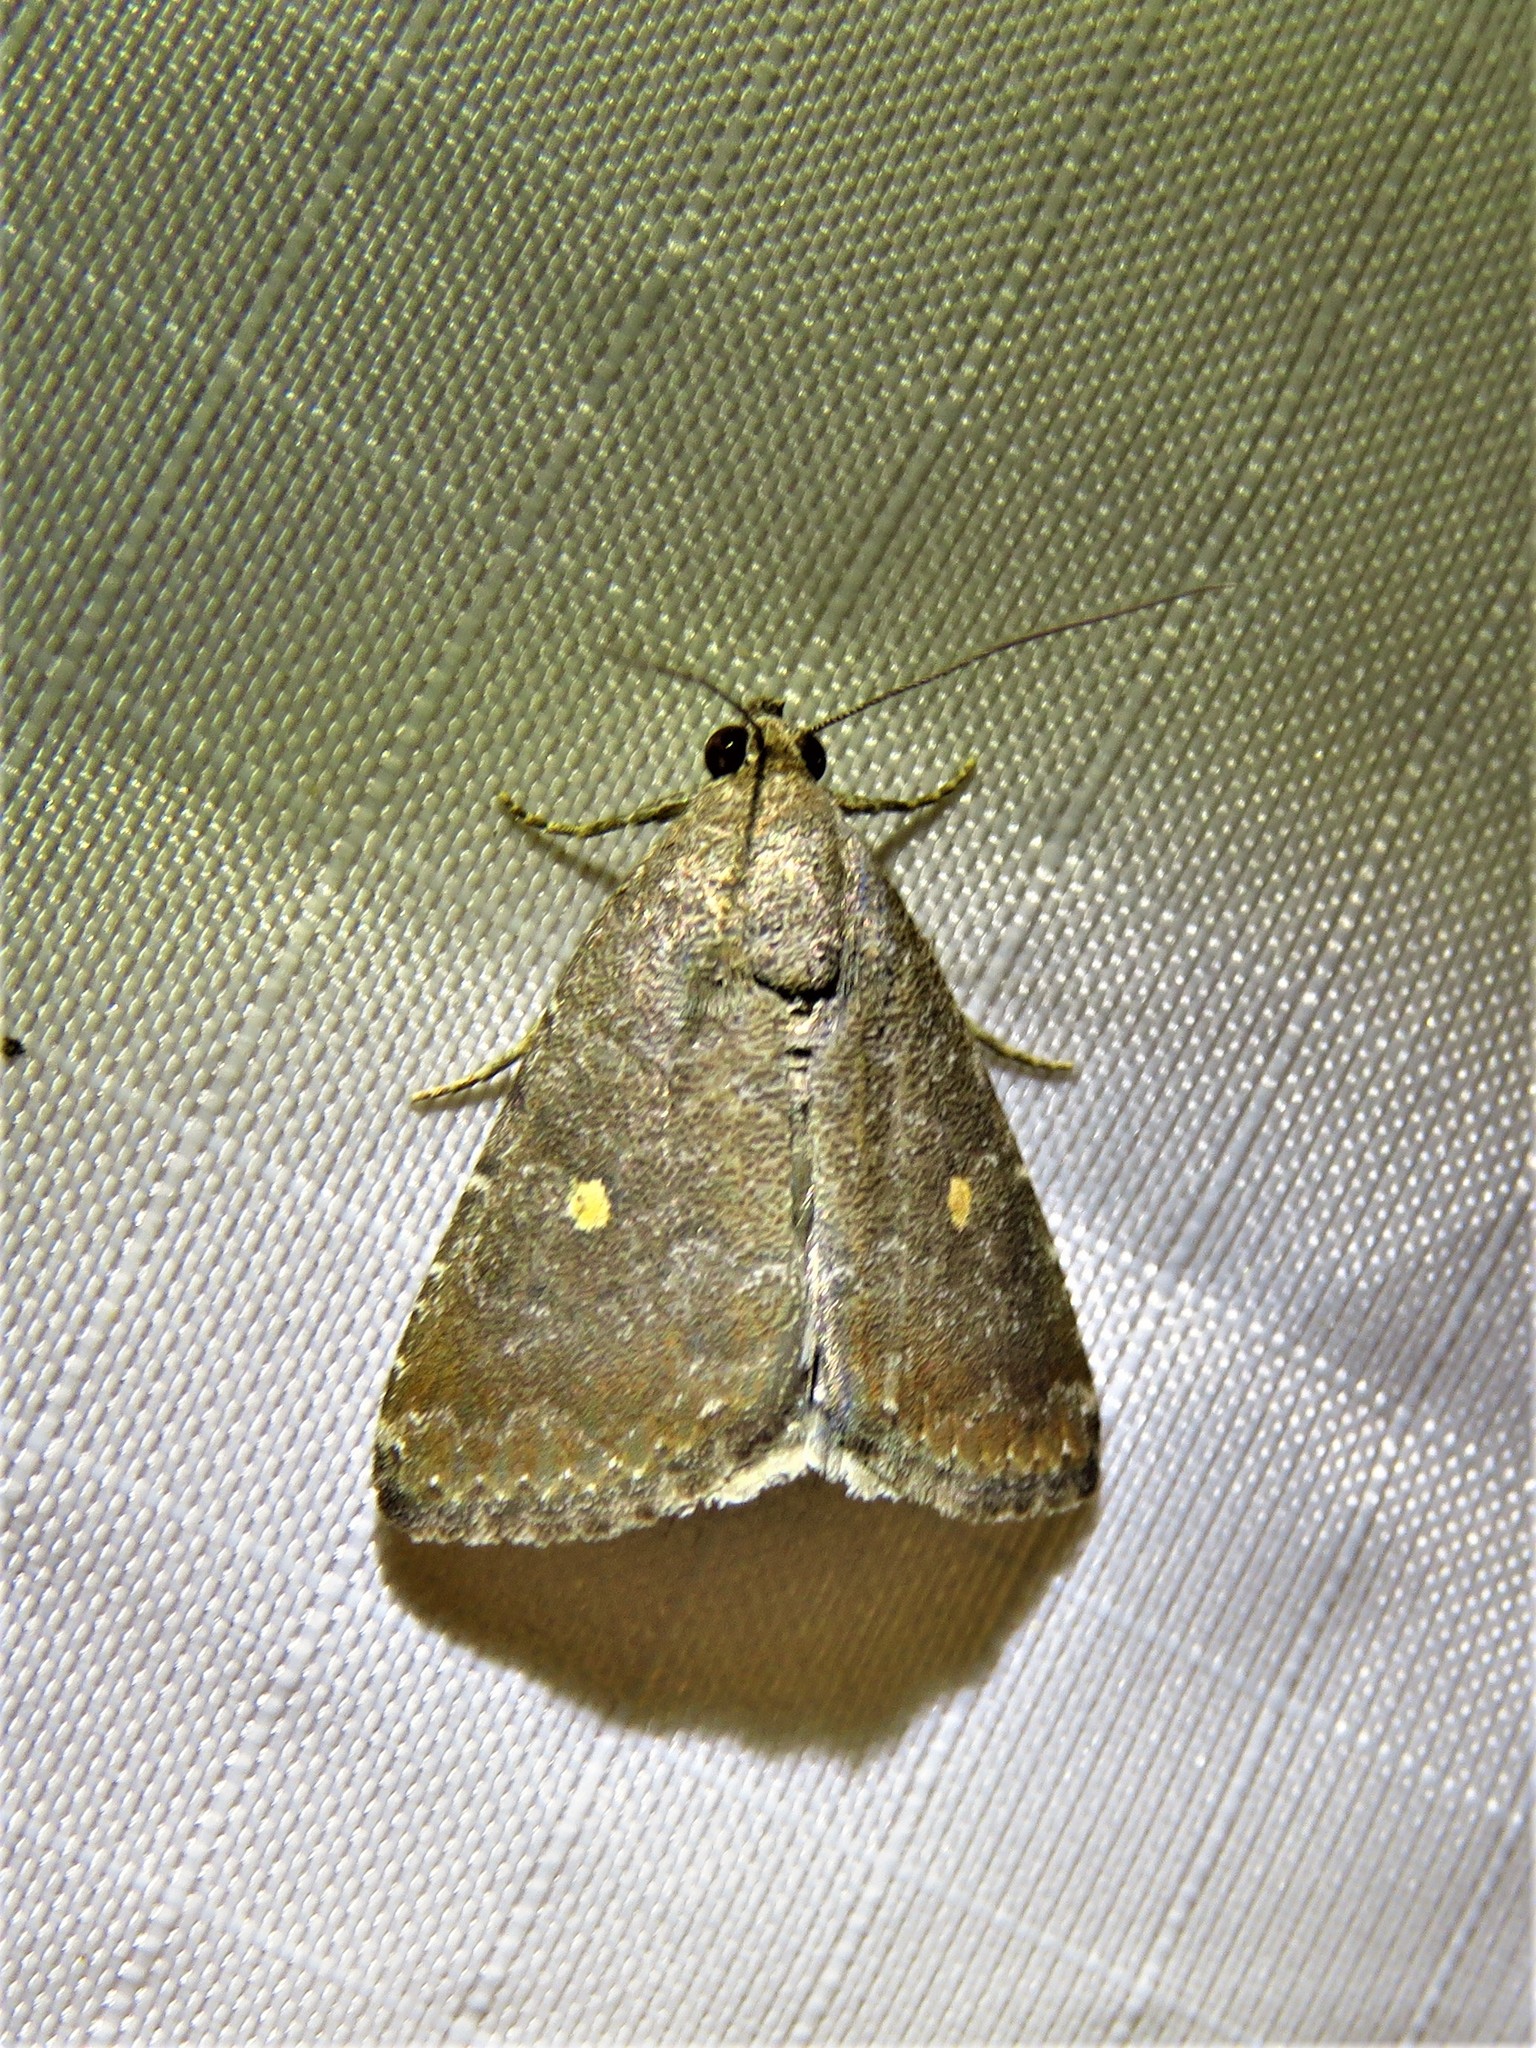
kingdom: Animalia
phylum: Arthropoda
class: Insecta
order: Lepidoptera
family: Noctuidae
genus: Amyna
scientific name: Amyna stricta
